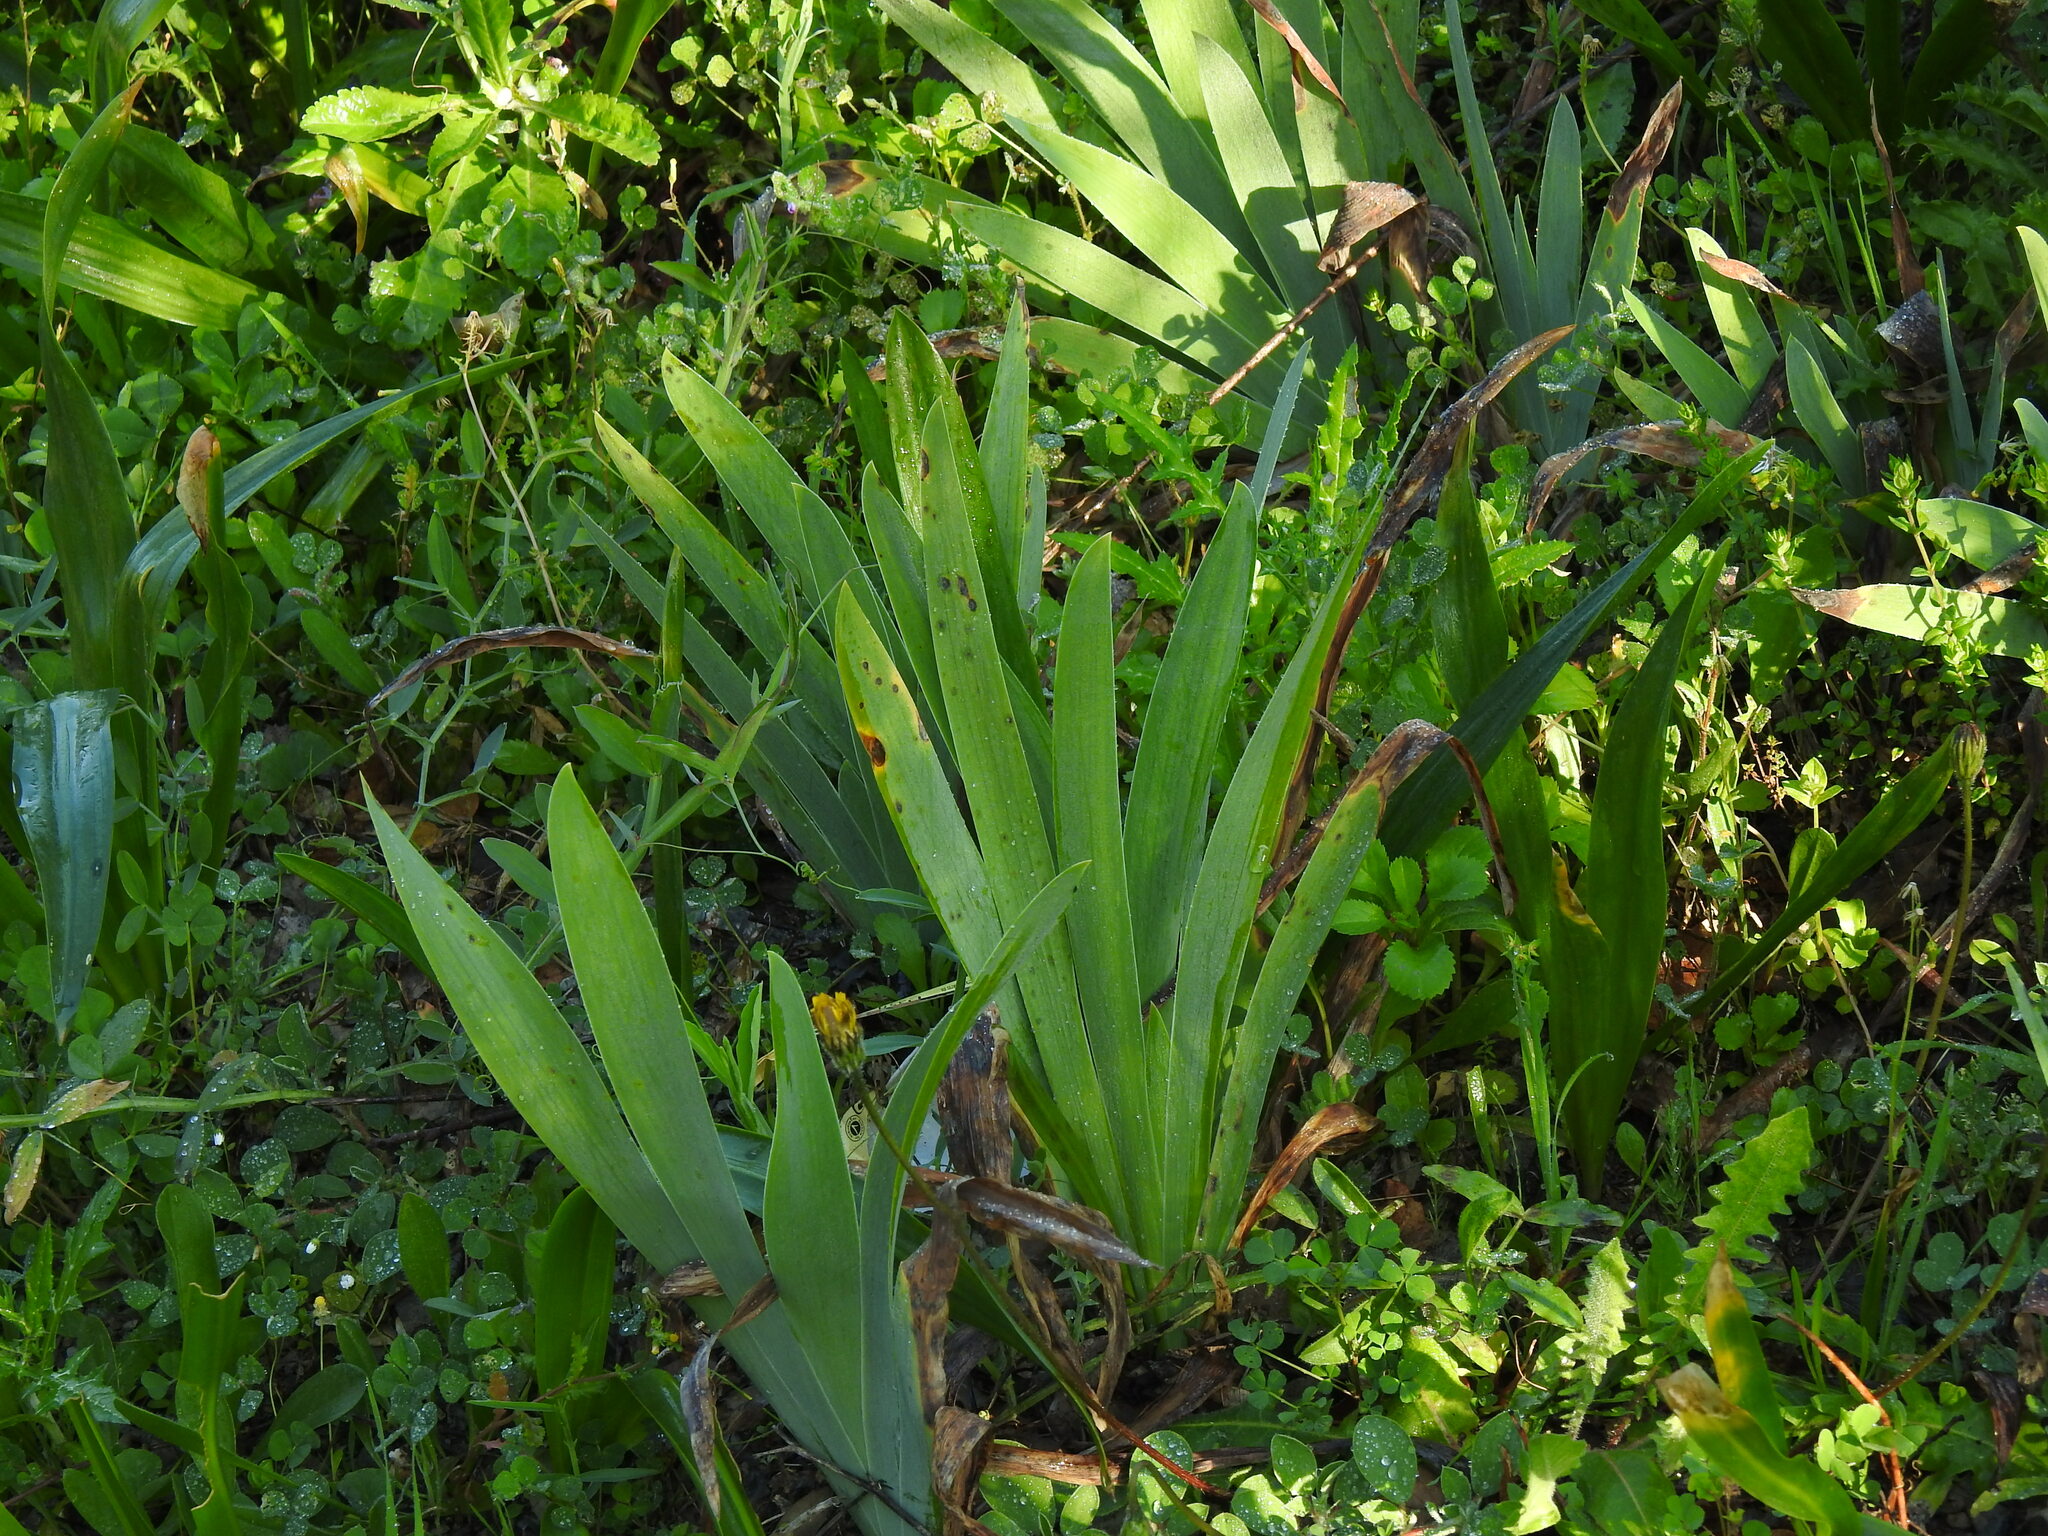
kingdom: Plantae
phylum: Tracheophyta
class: Liliopsida
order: Asparagales
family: Iridaceae
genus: Iris
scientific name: Iris florentina
